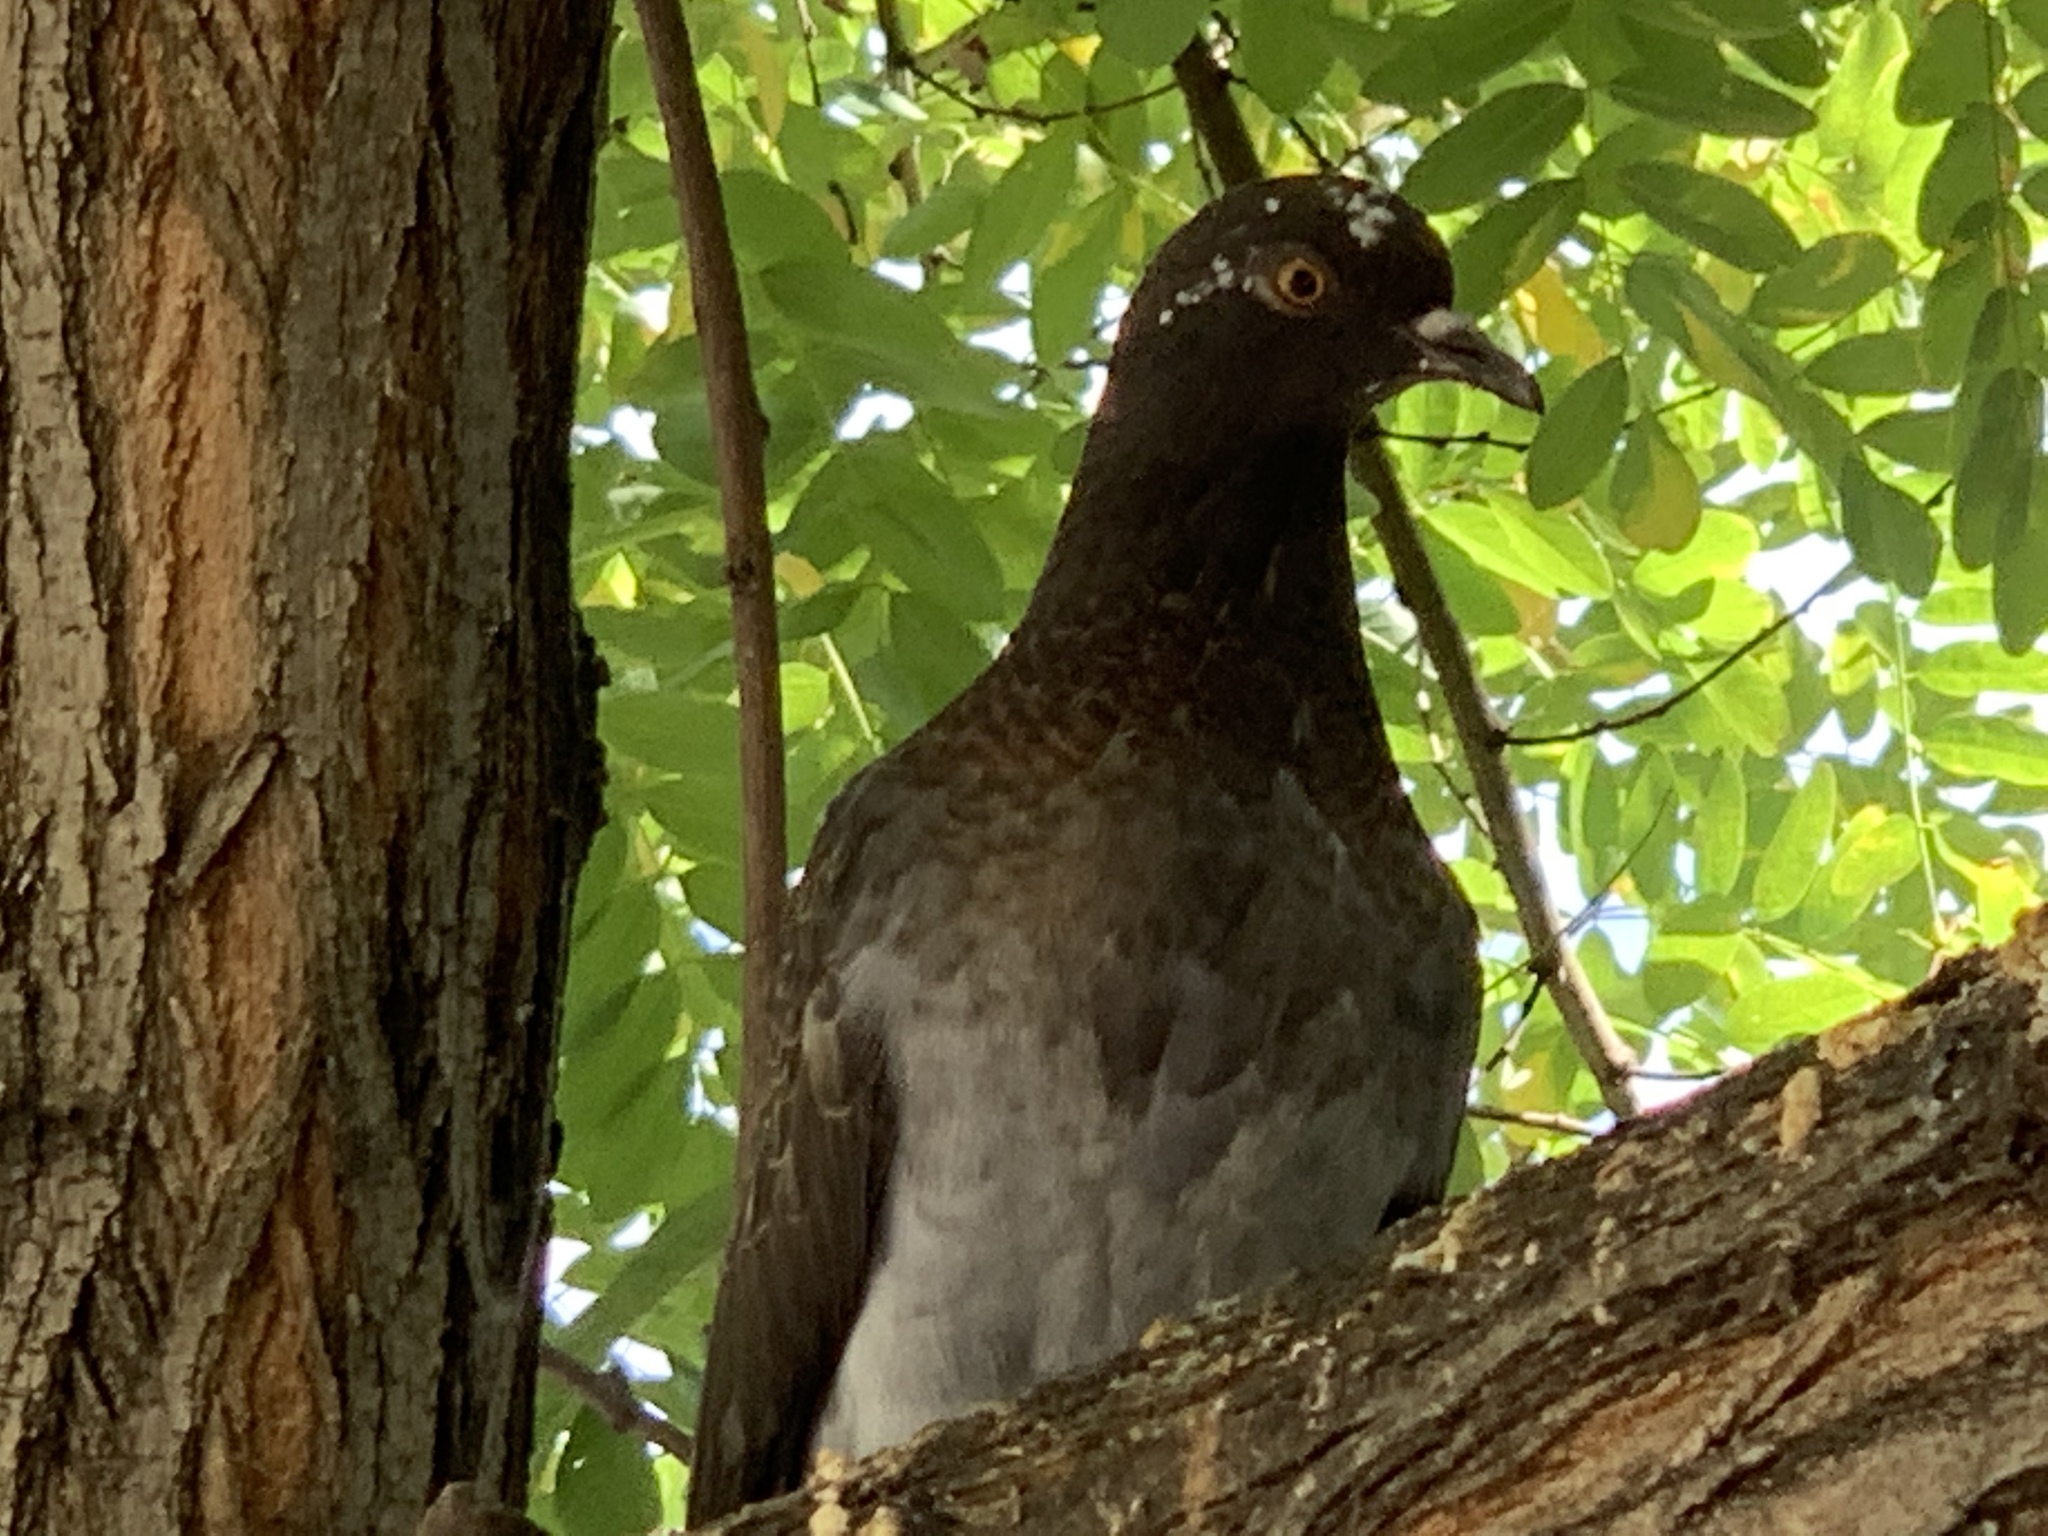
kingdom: Animalia
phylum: Chordata
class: Aves
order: Columbiformes
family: Columbidae
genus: Columba
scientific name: Columba livia
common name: Rock pigeon
